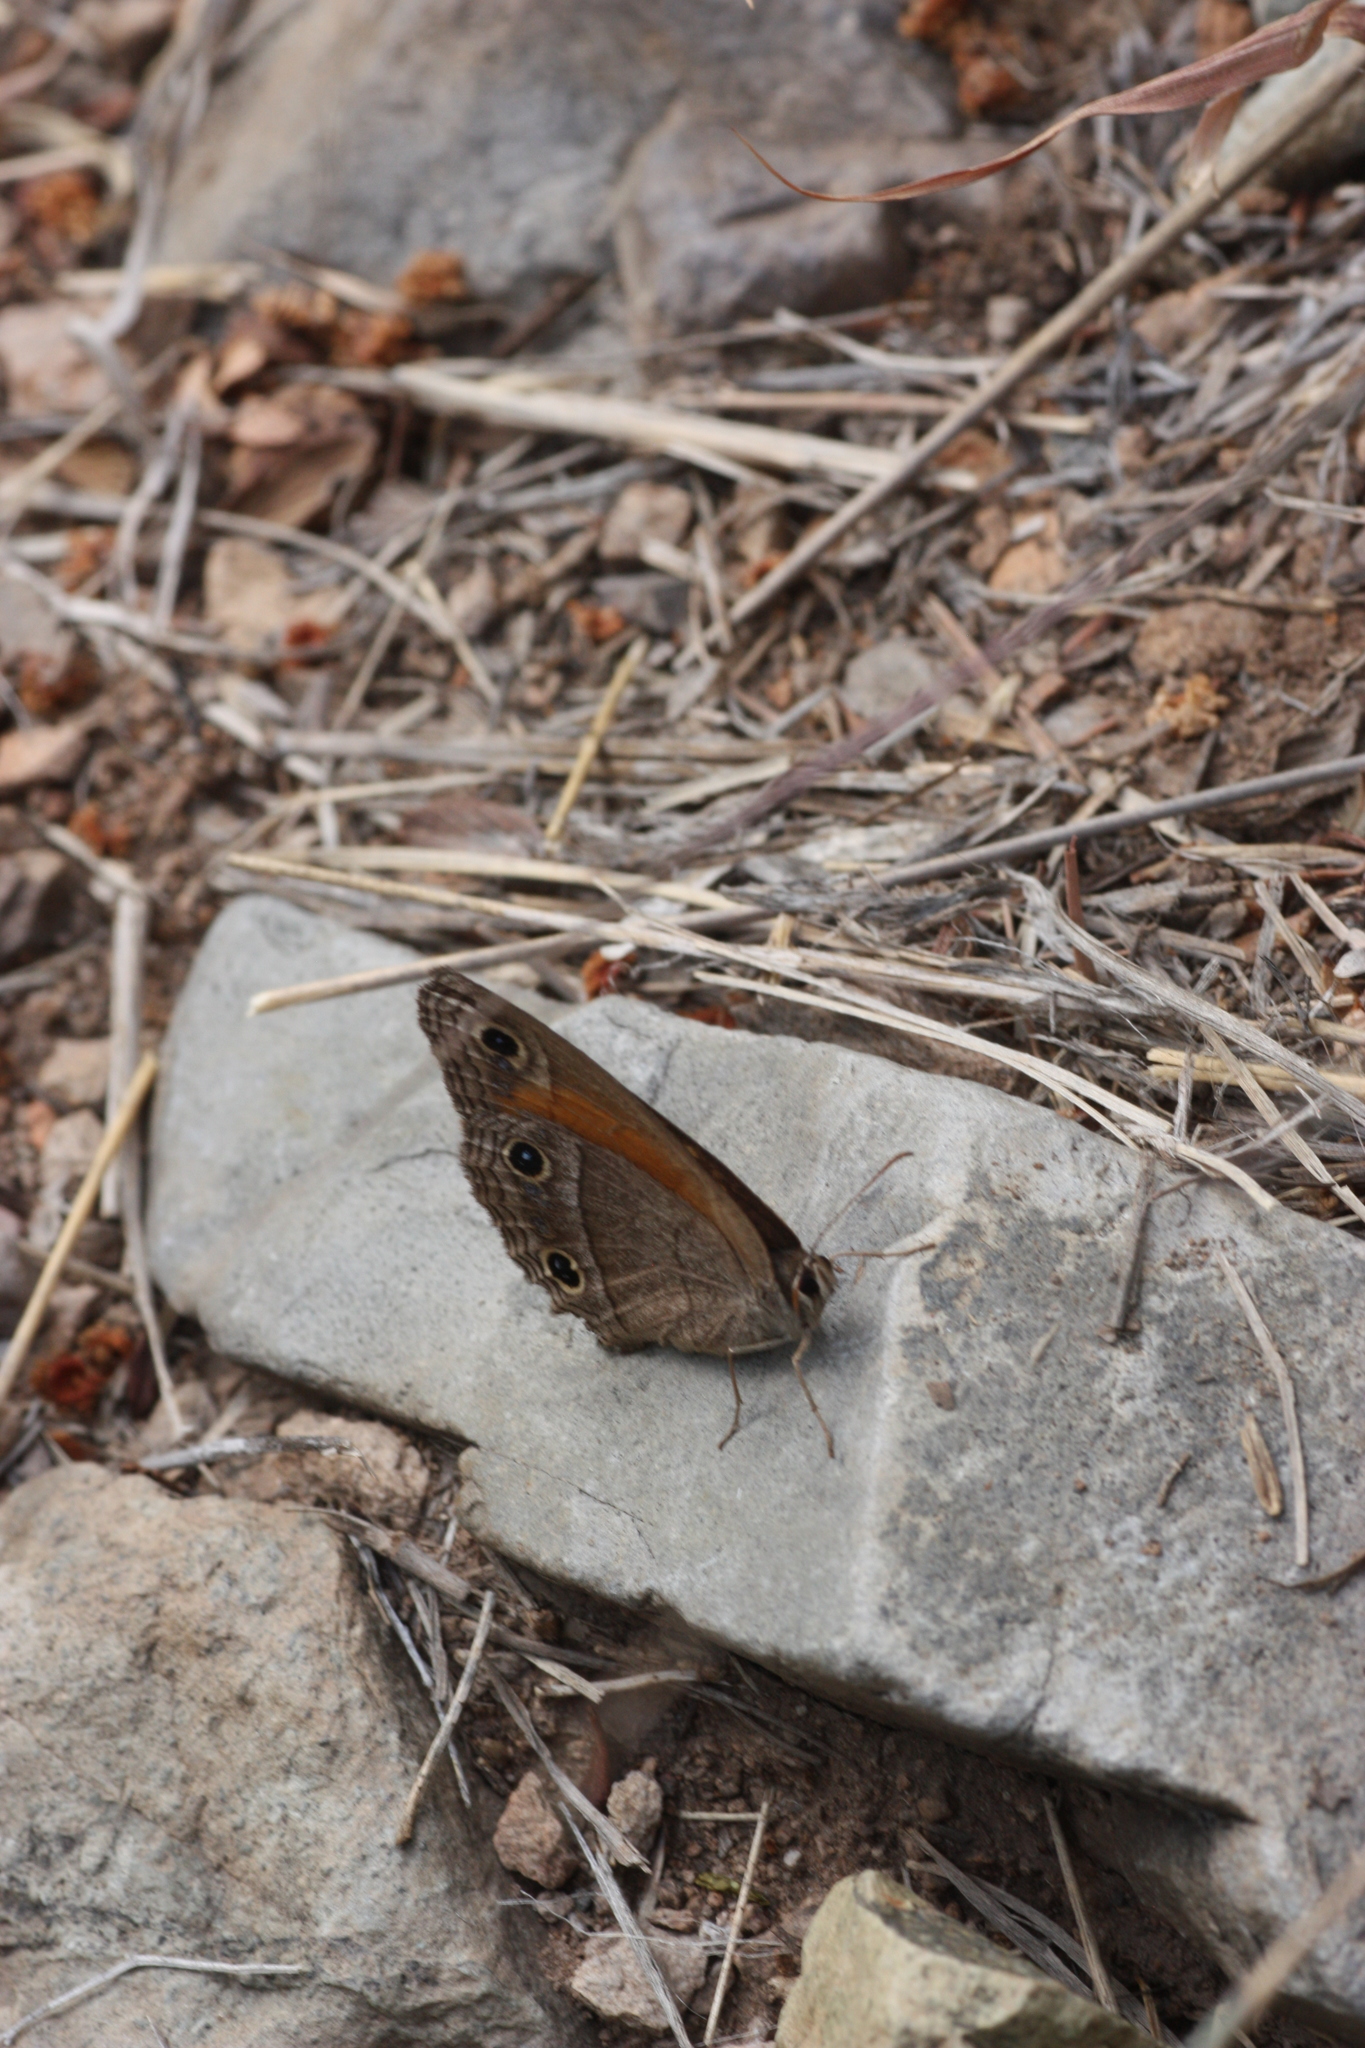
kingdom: Animalia
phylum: Arthropoda
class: Insecta
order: Lepidoptera
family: Nymphalidae
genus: Euptychia
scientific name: Euptychia Cissia rubricata
